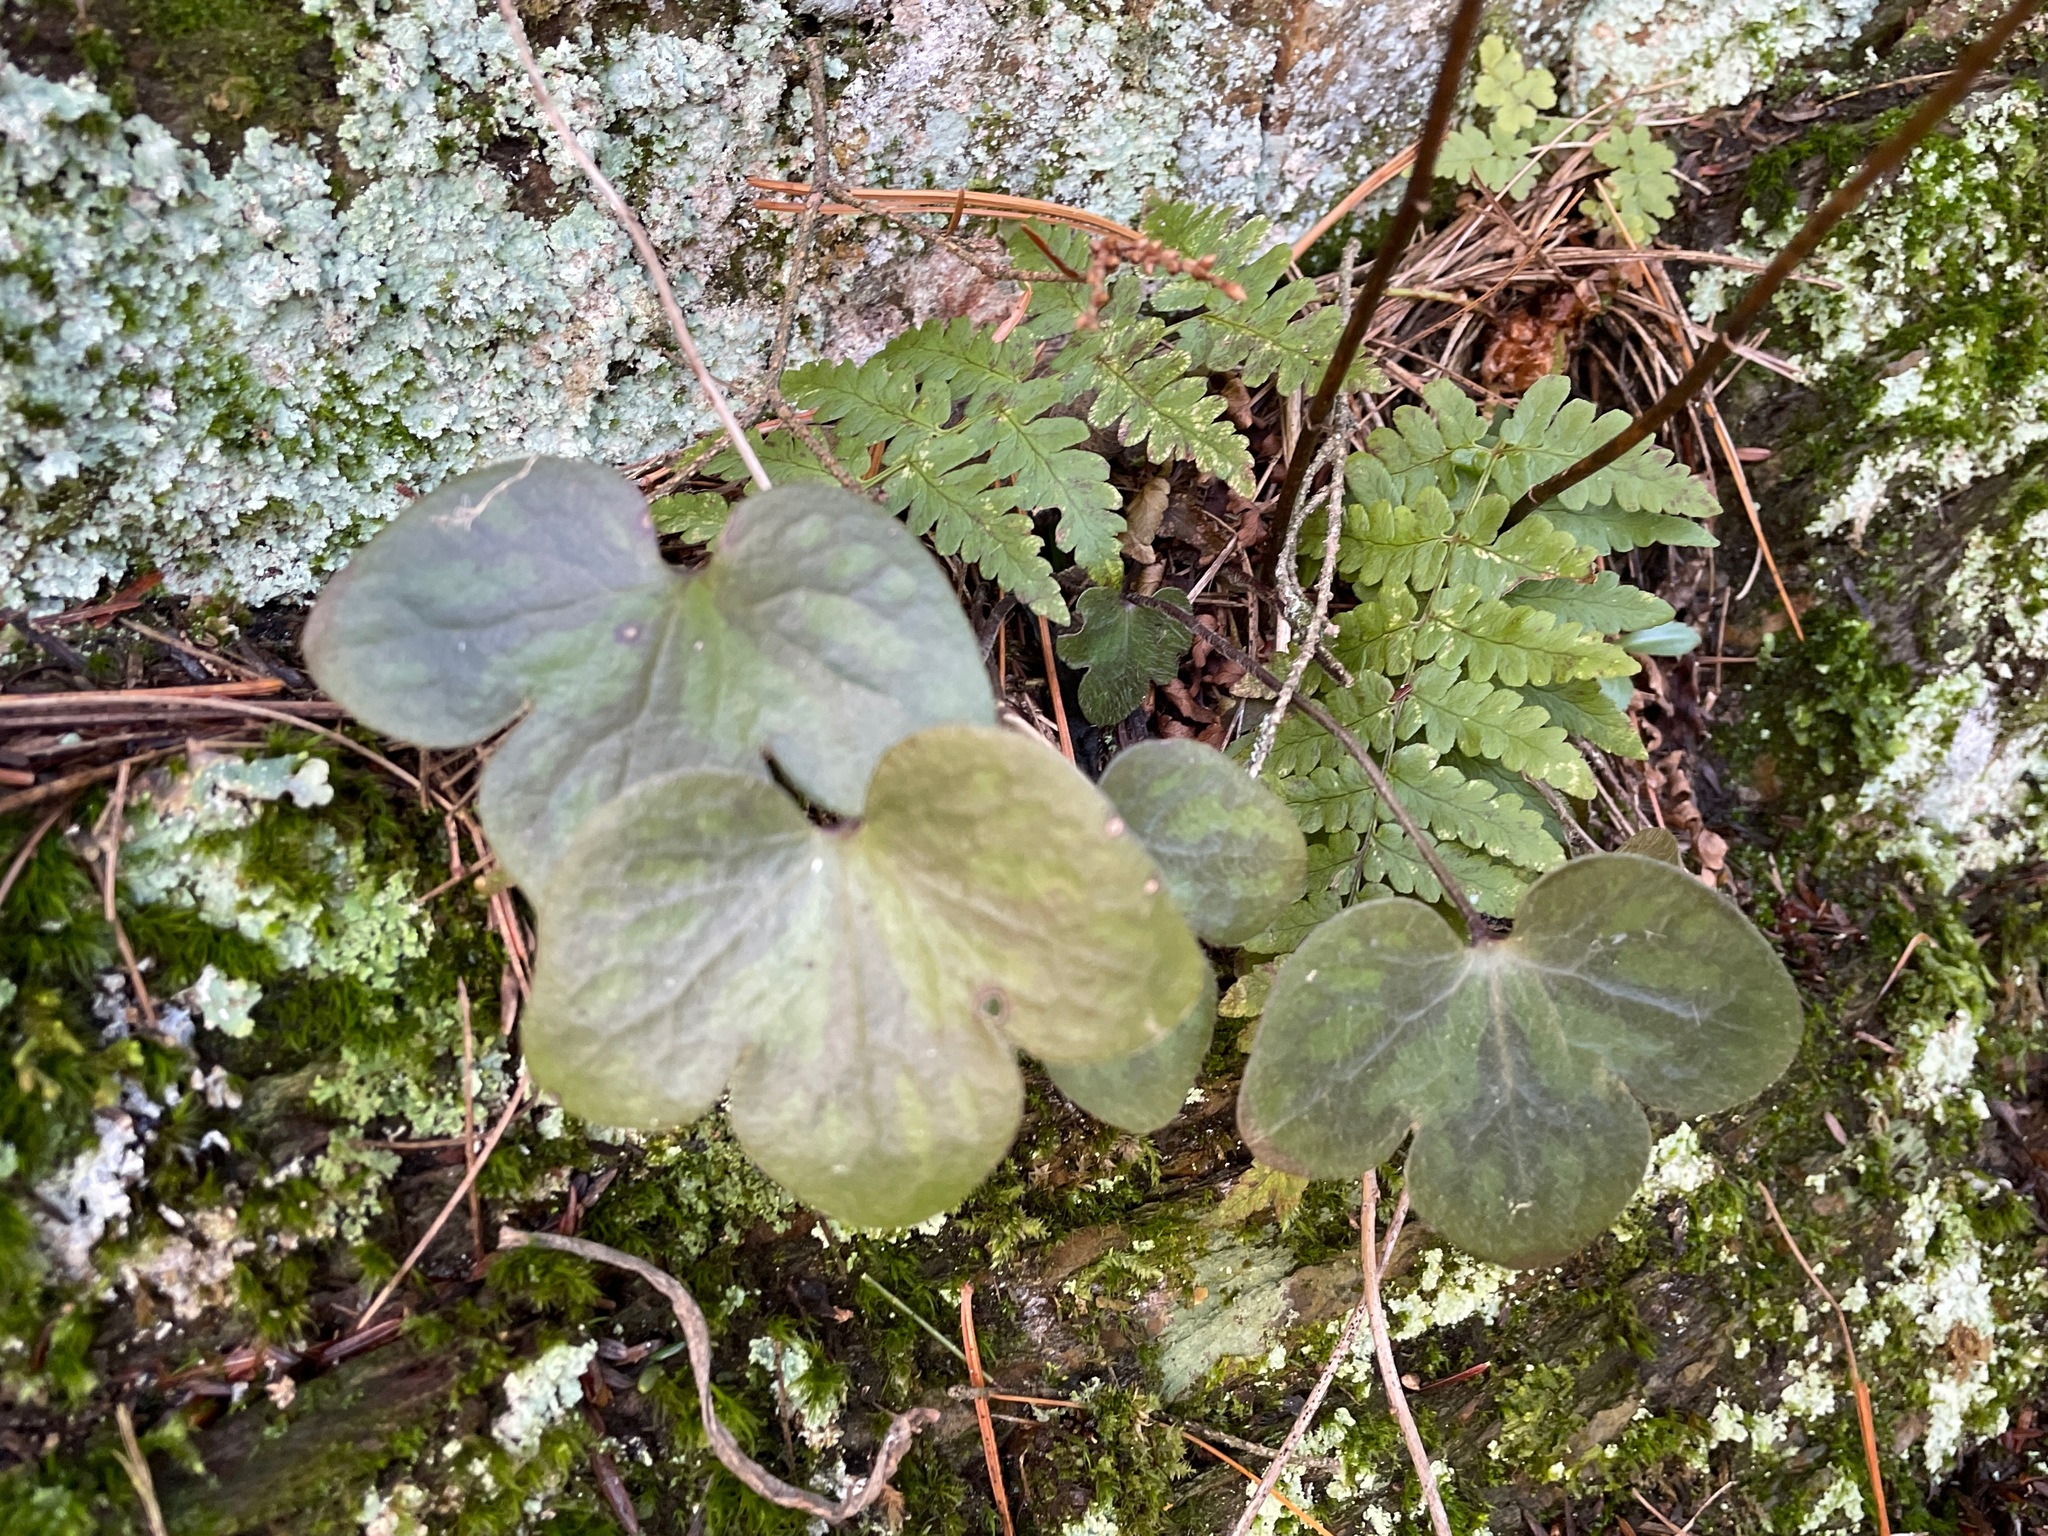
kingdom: Plantae
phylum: Tracheophyta
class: Magnoliopsida
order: Ranunculales
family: Ranunculaceae
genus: Hepatica
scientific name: Hepatica americana
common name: American hepatica
